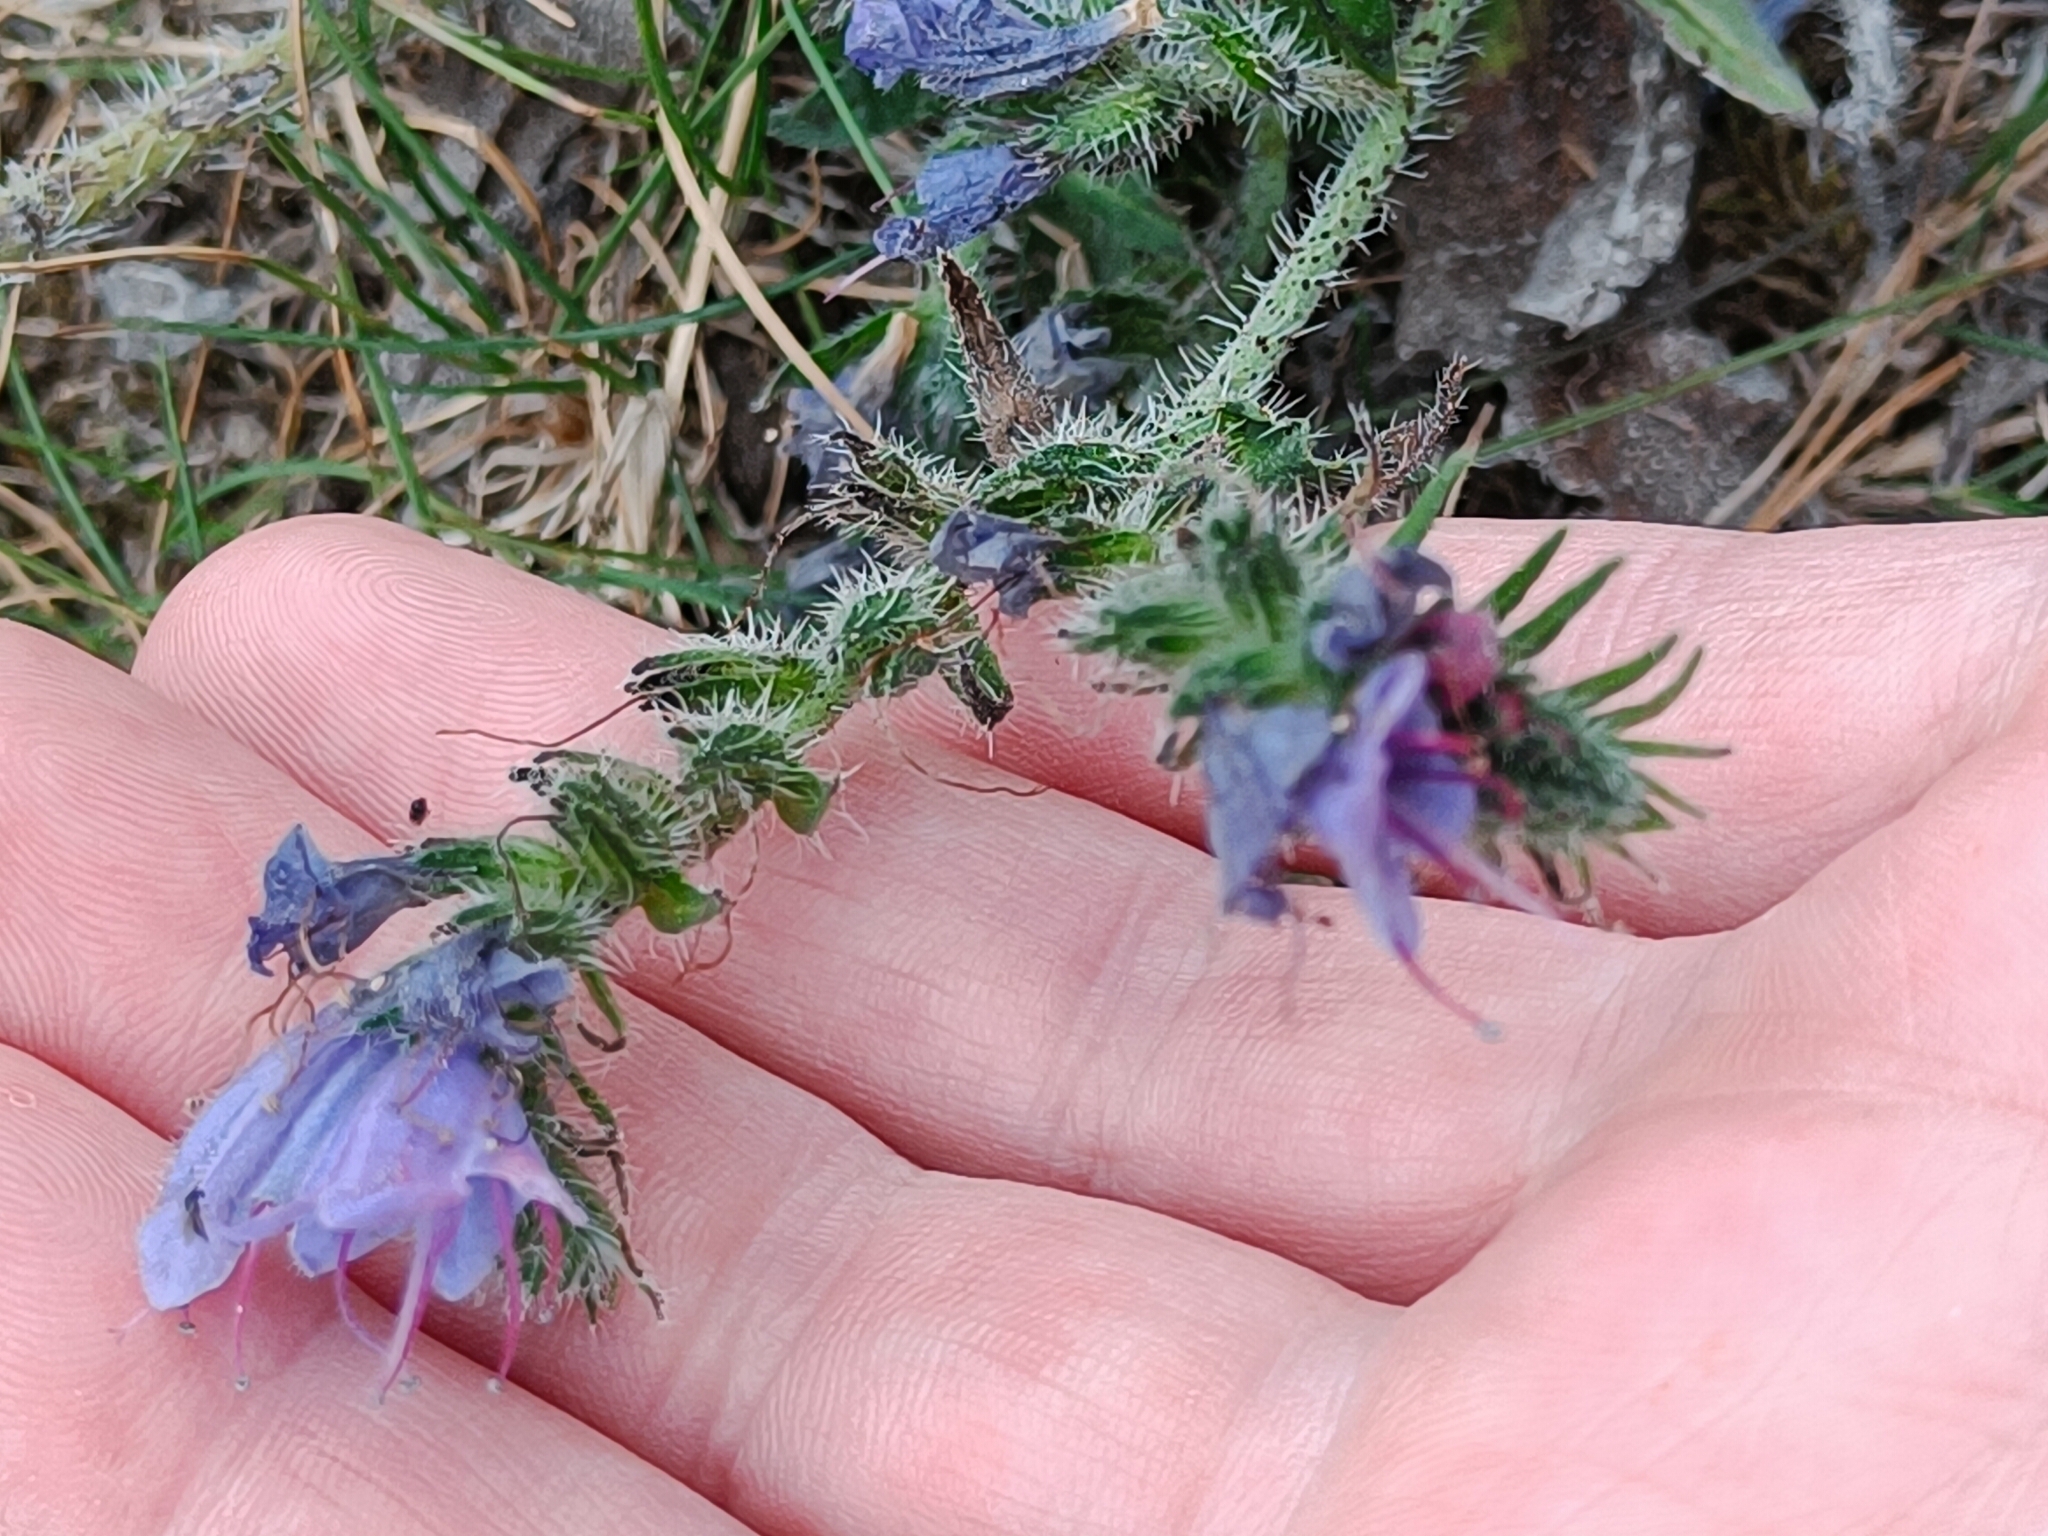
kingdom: Plantae
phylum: Tracheophyta
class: Magnoliopsida
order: Boraginales
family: Boraginaceae
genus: Echium
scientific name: Echium vulgare
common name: Common viper's bugloss
